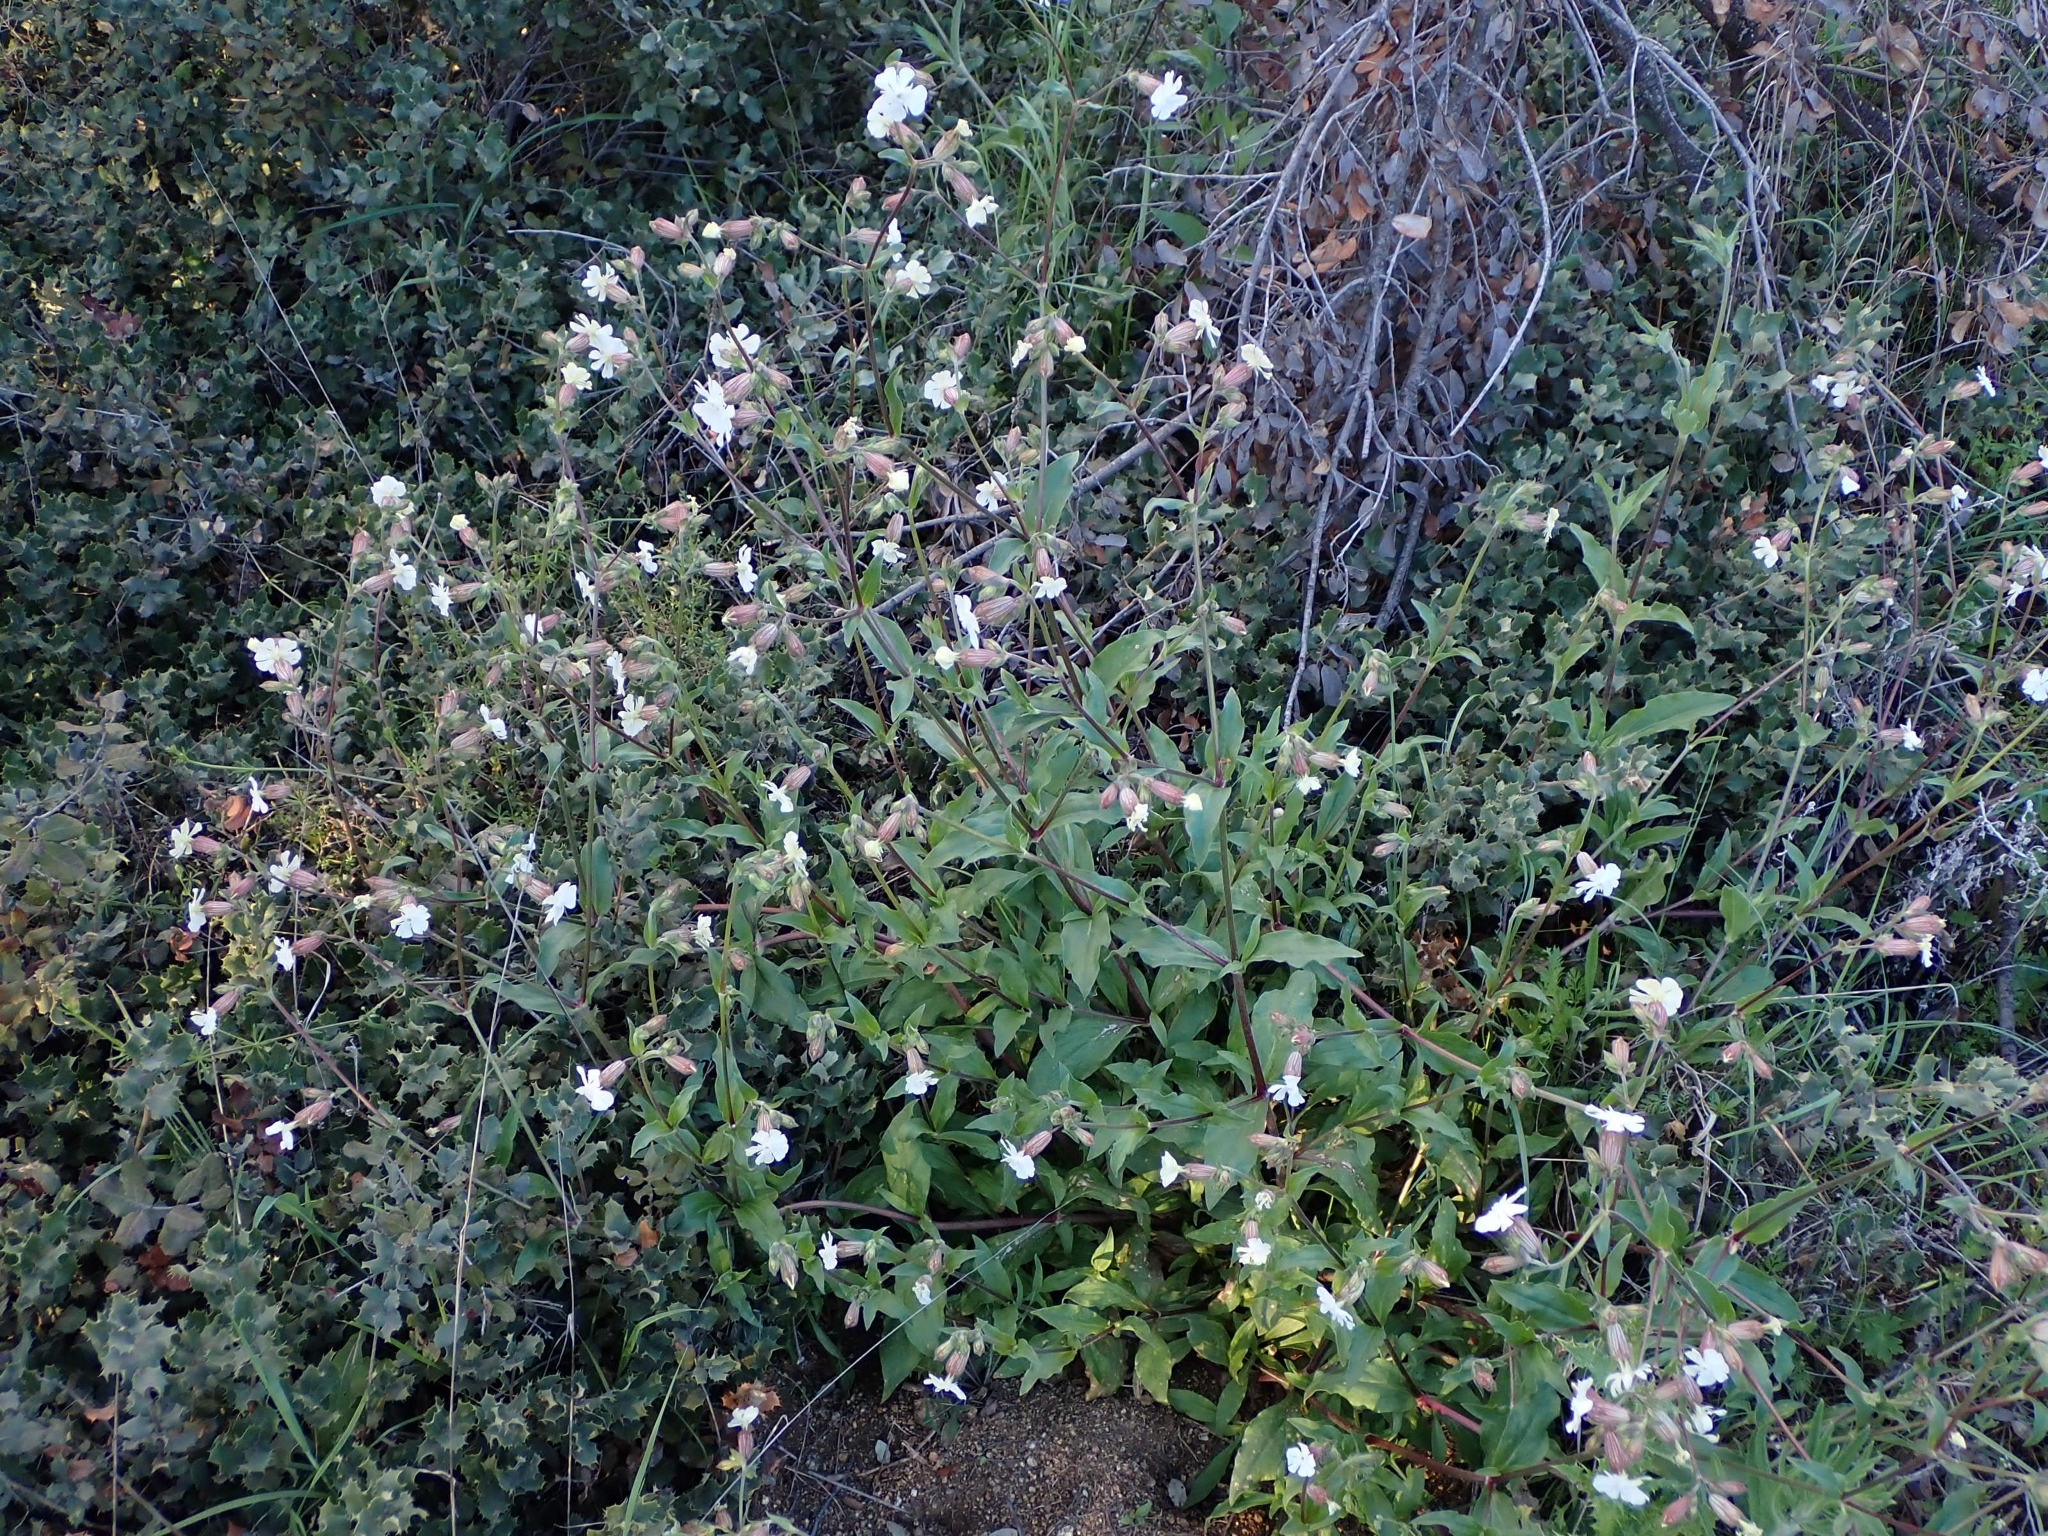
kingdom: Plantae
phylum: Tracheophyta
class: Magnoliopsida
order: Caryophyllales
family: Caryophyllaceae
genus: Silene
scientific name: Silene latifolia
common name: White campion
